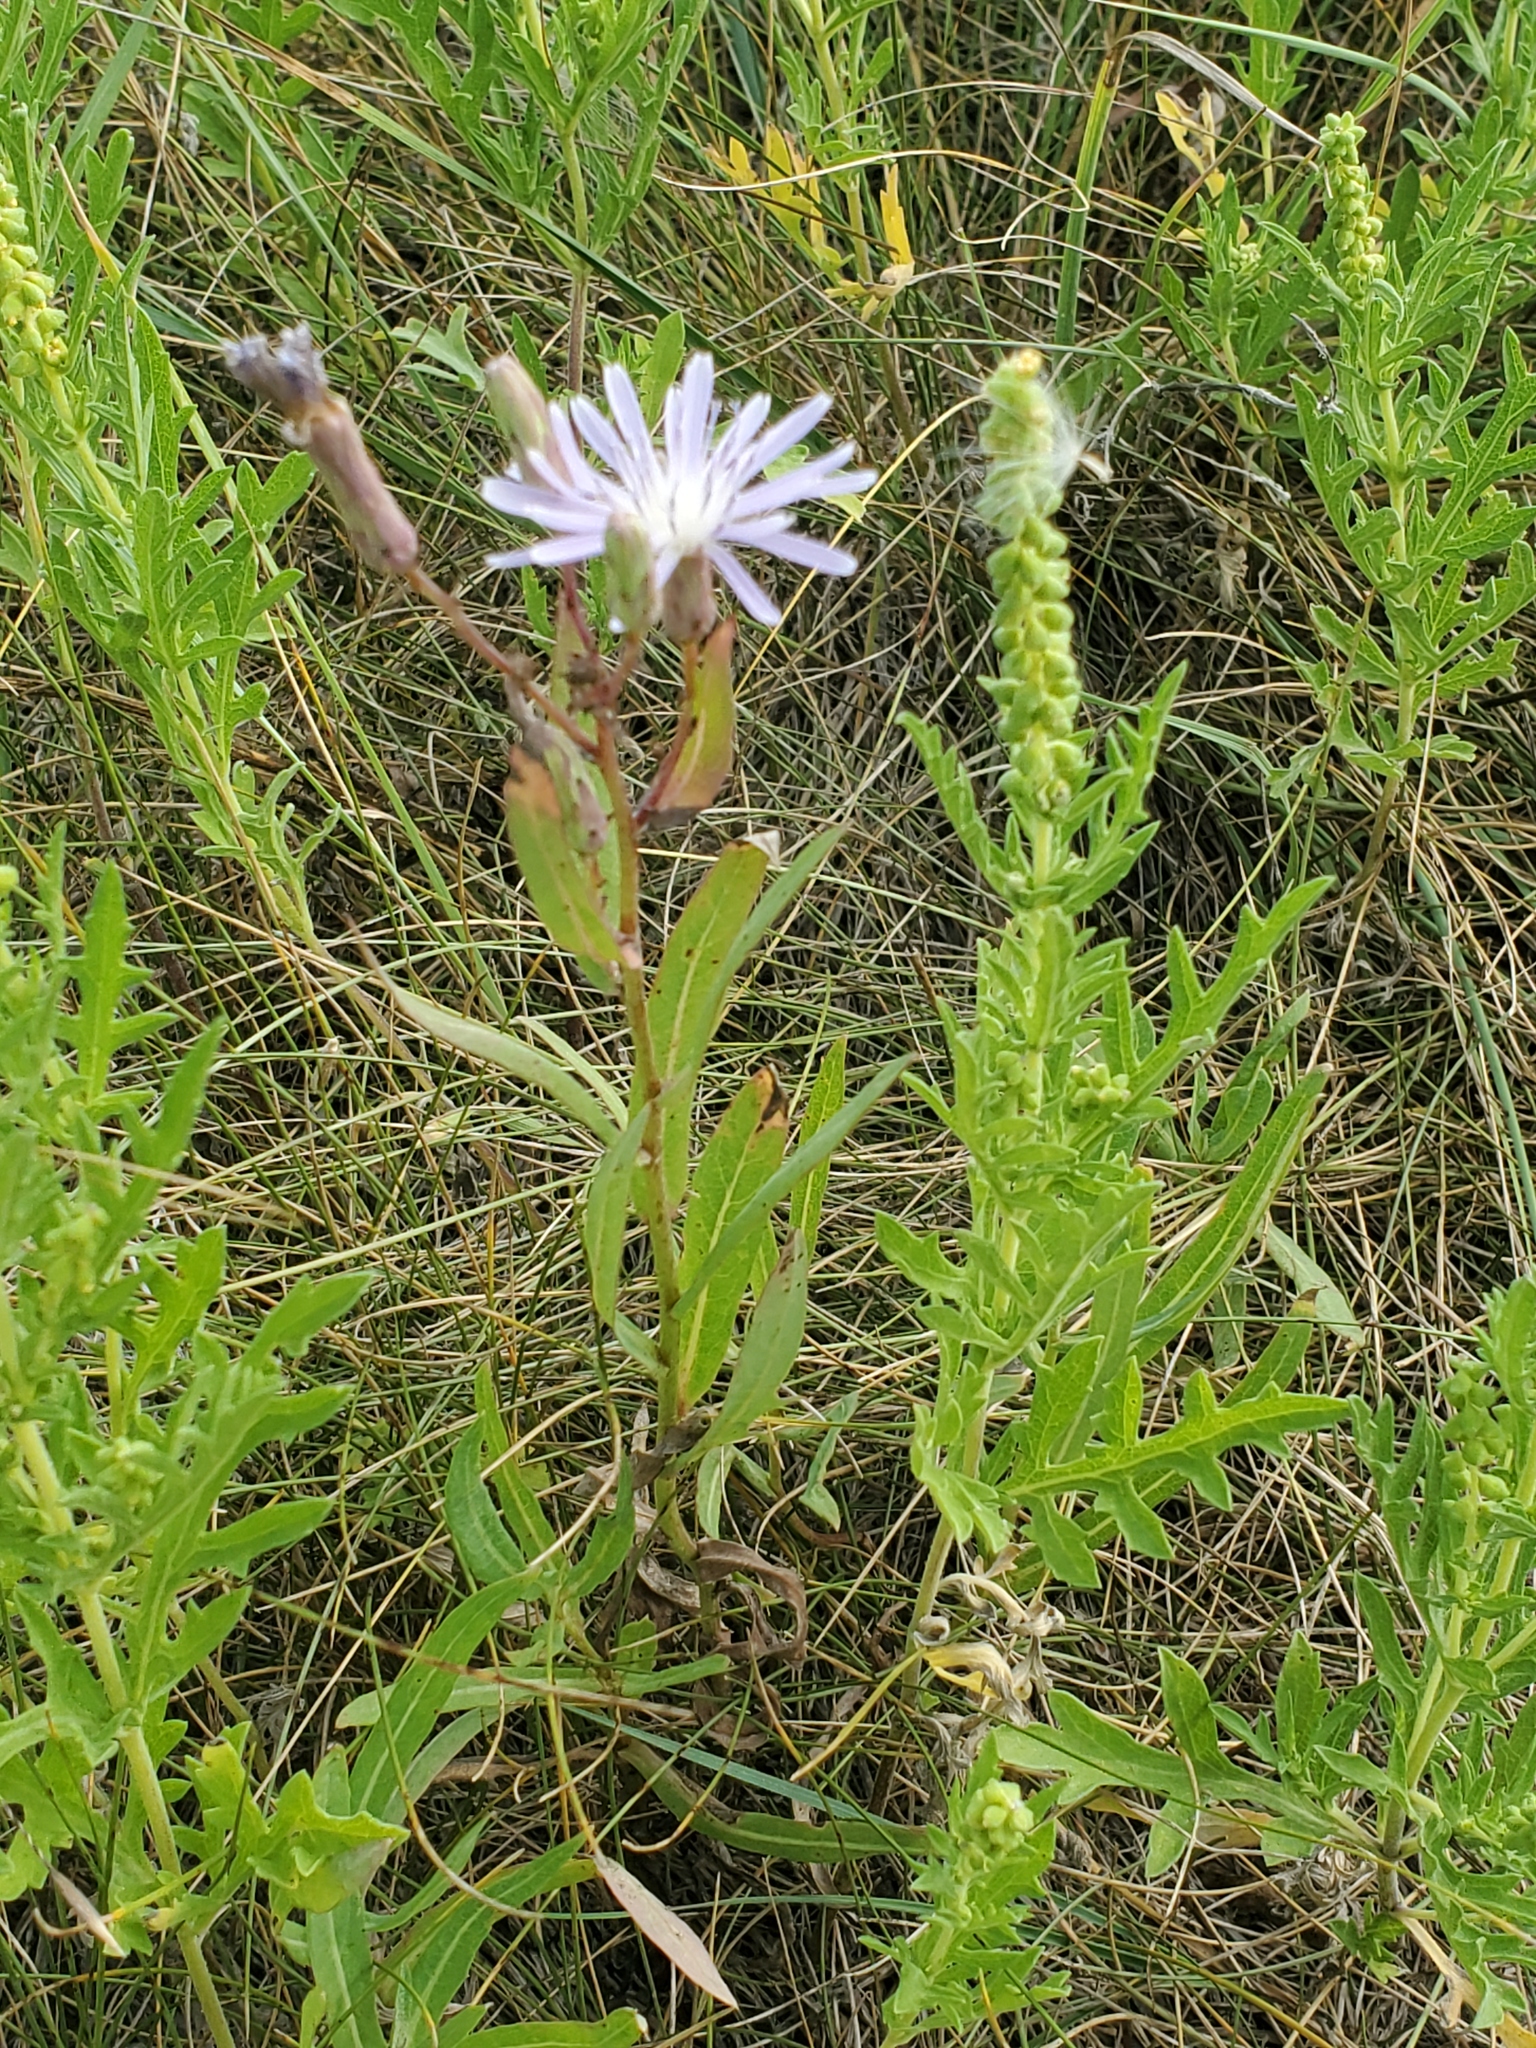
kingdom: Plantae
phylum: Tracheophyta
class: Magnoliopsida
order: Asterales
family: Asteraceae
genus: Lactuca
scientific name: Lactuca tatarica
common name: Blue lettuce
